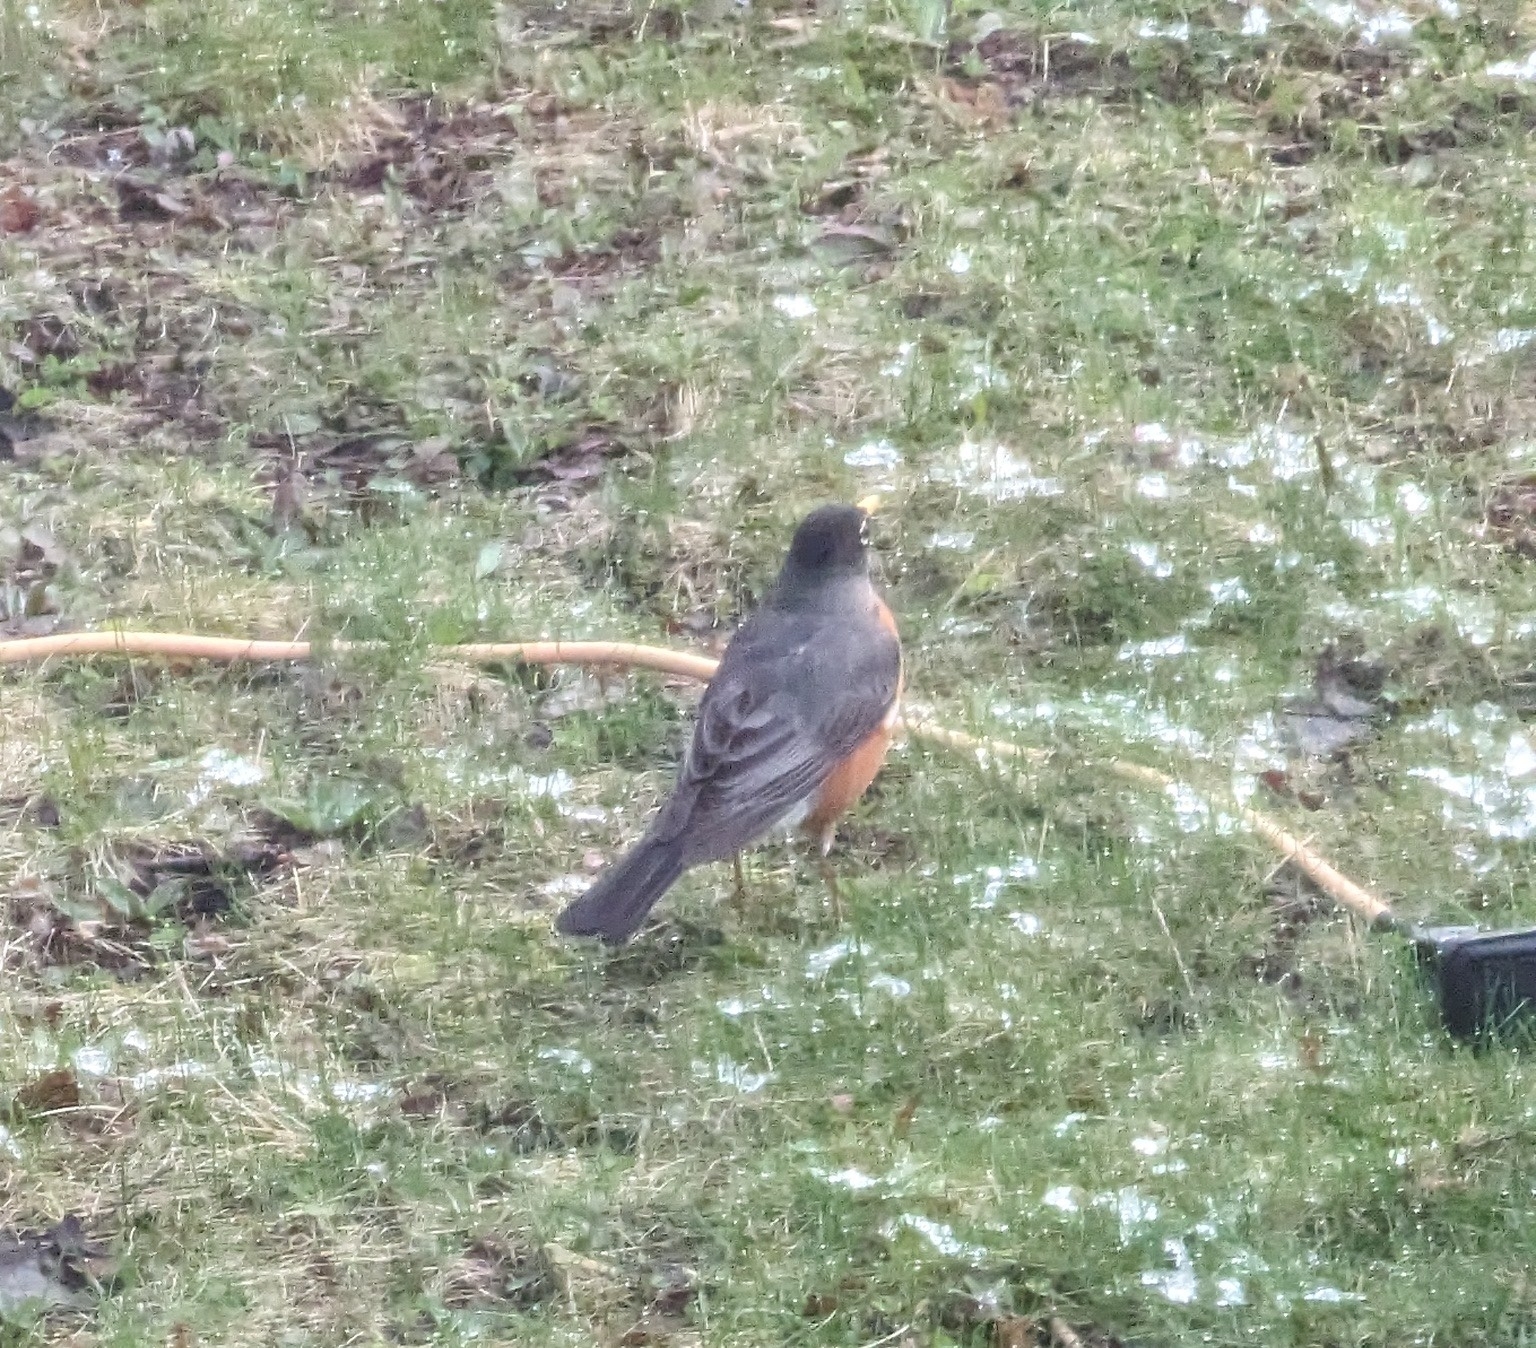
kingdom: Animalia
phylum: Chordata
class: Aves
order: Passeriformes
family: Turdidae
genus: Turdus
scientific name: Turdus migratorius
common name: American robin
